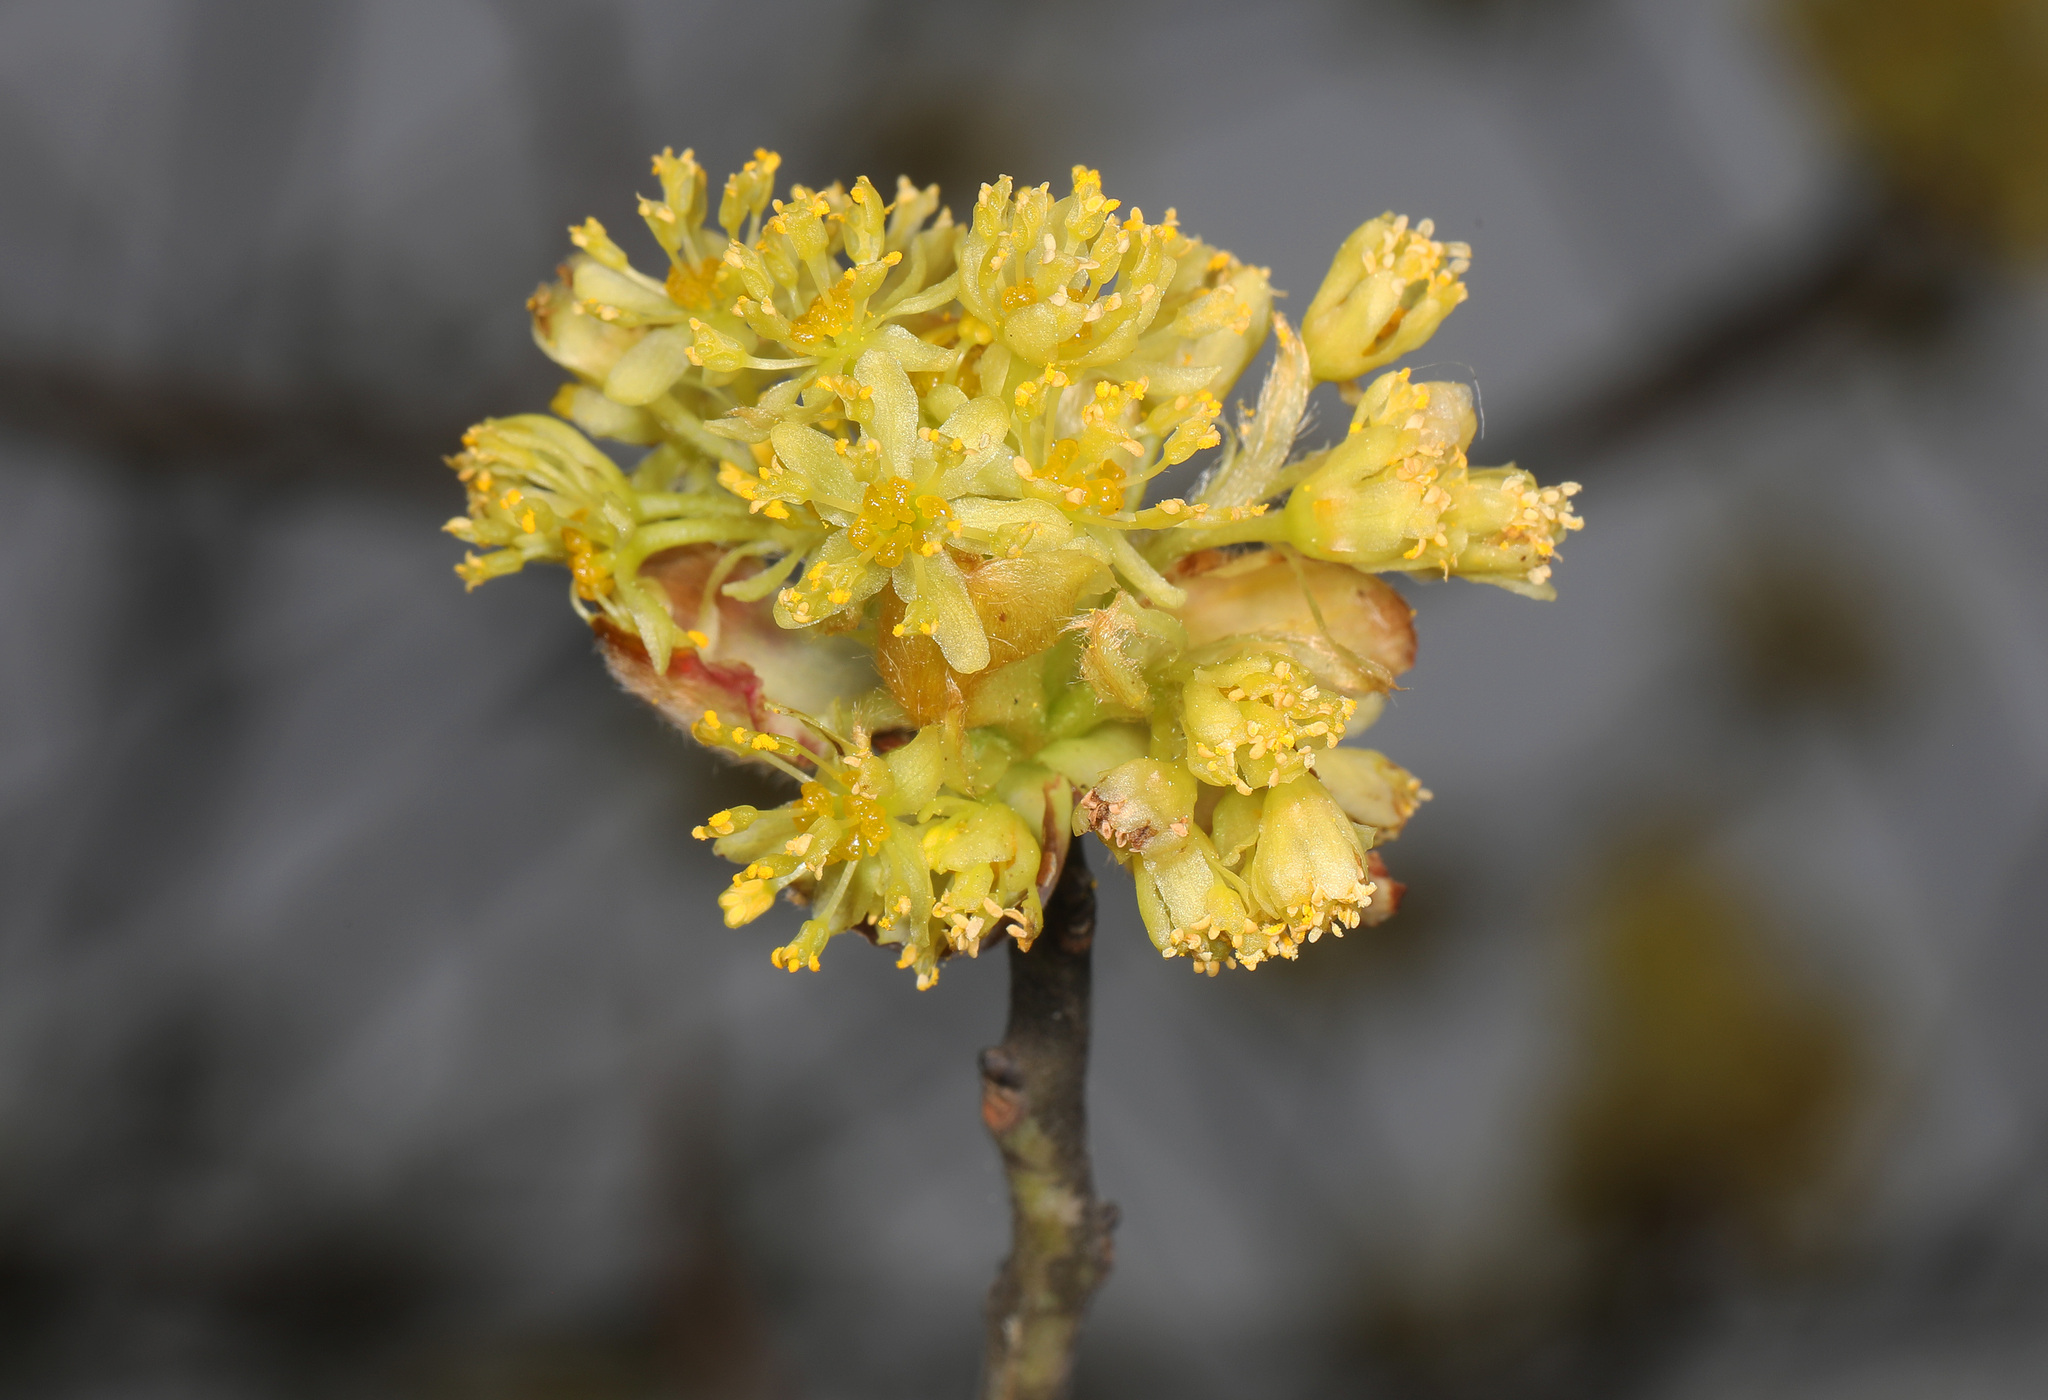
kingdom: Plantae
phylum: Tracheophyta
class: Magnoliopsida
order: Laurales
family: Lauraceae
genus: Sassafras
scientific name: Sassafras albidum
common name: Sassafras
